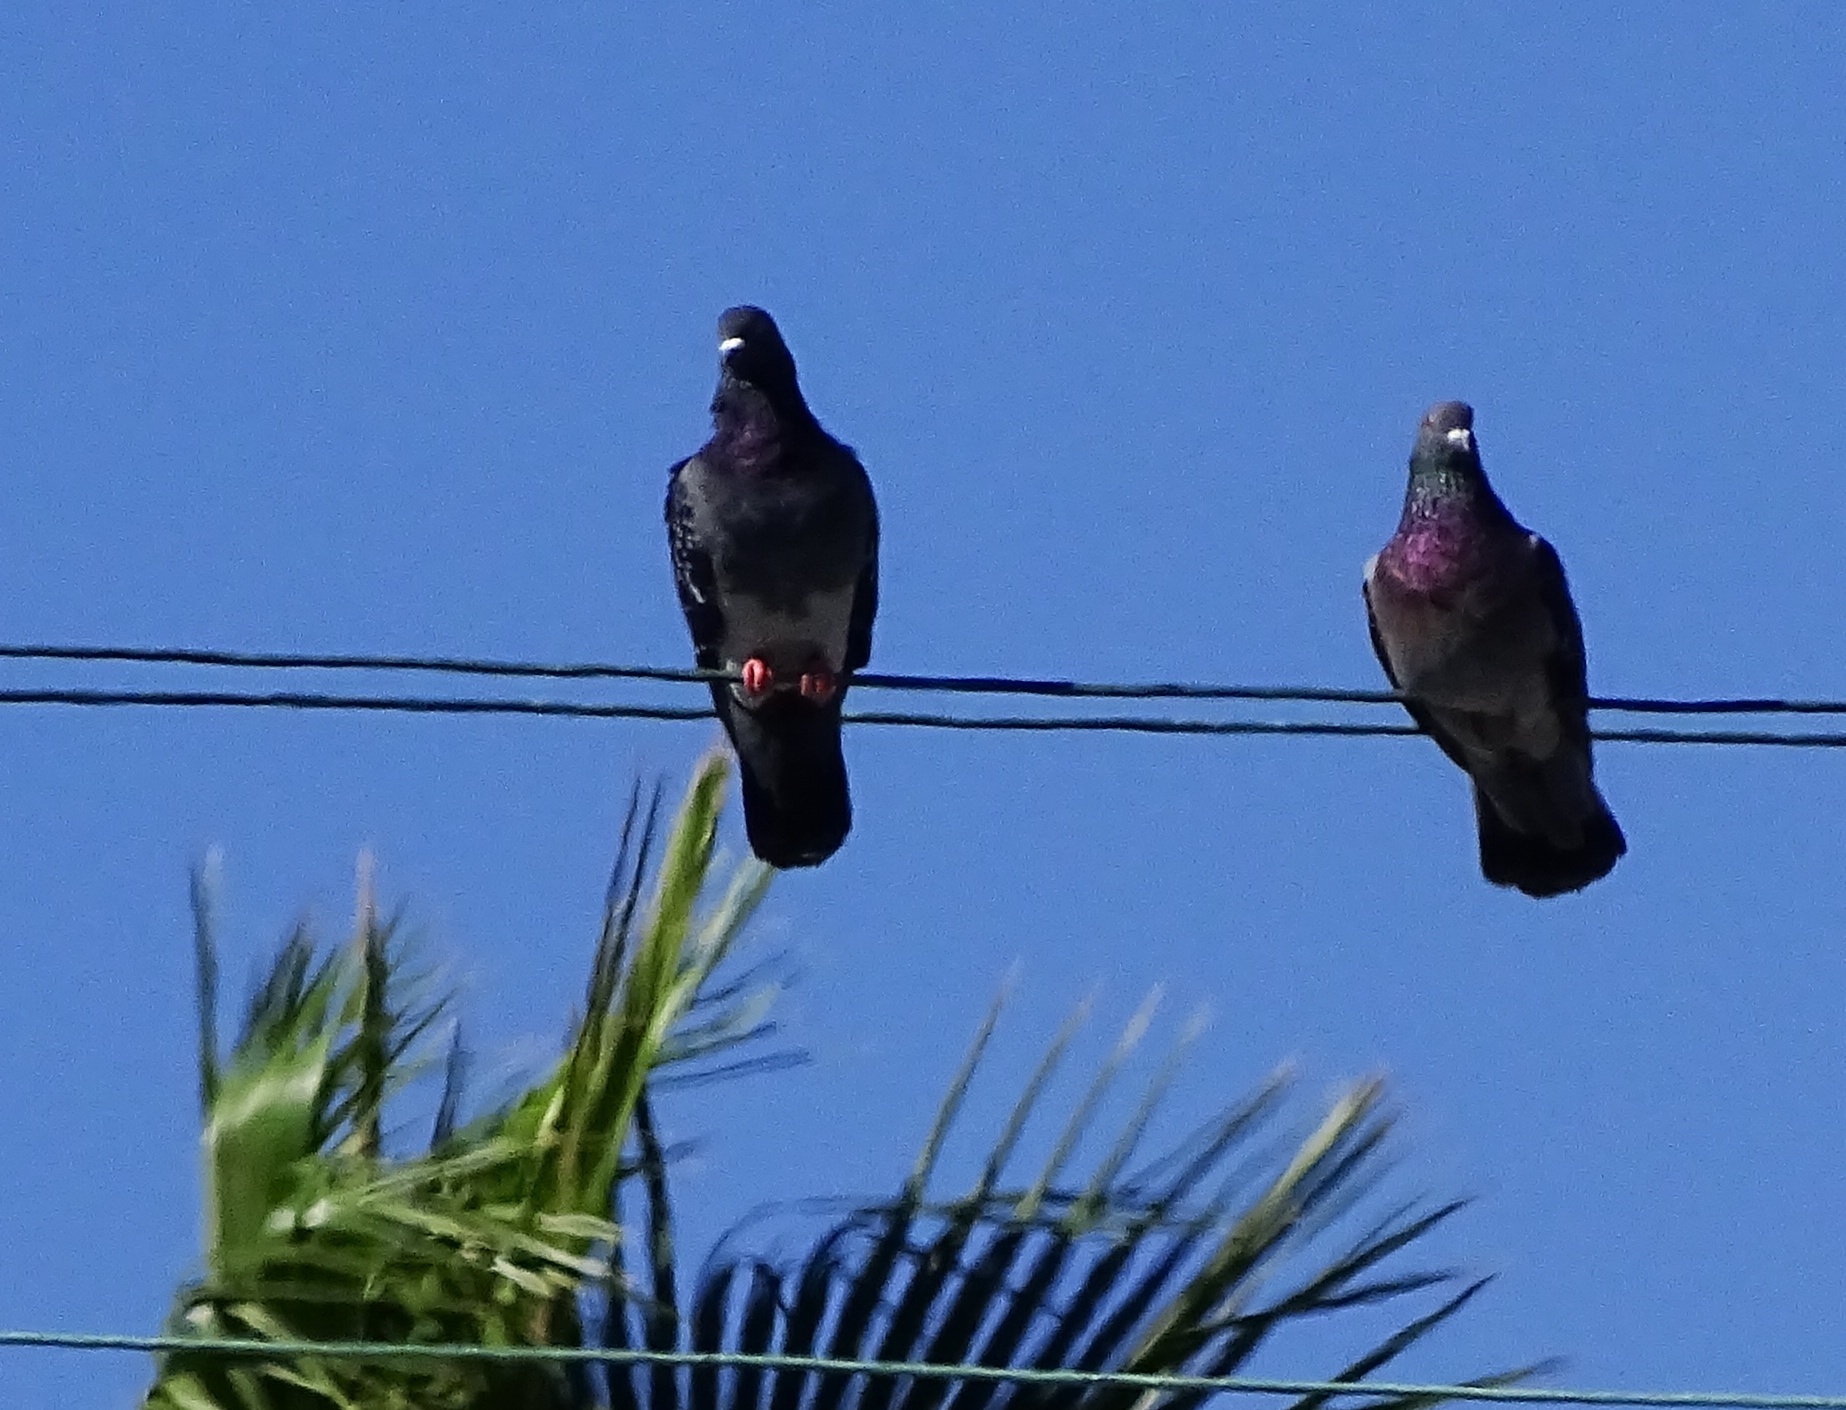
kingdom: Animalia
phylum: Chordata
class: Aves
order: Columbiformes
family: Columbidae
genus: Columba
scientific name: Columba livia
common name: Rock pigeon
